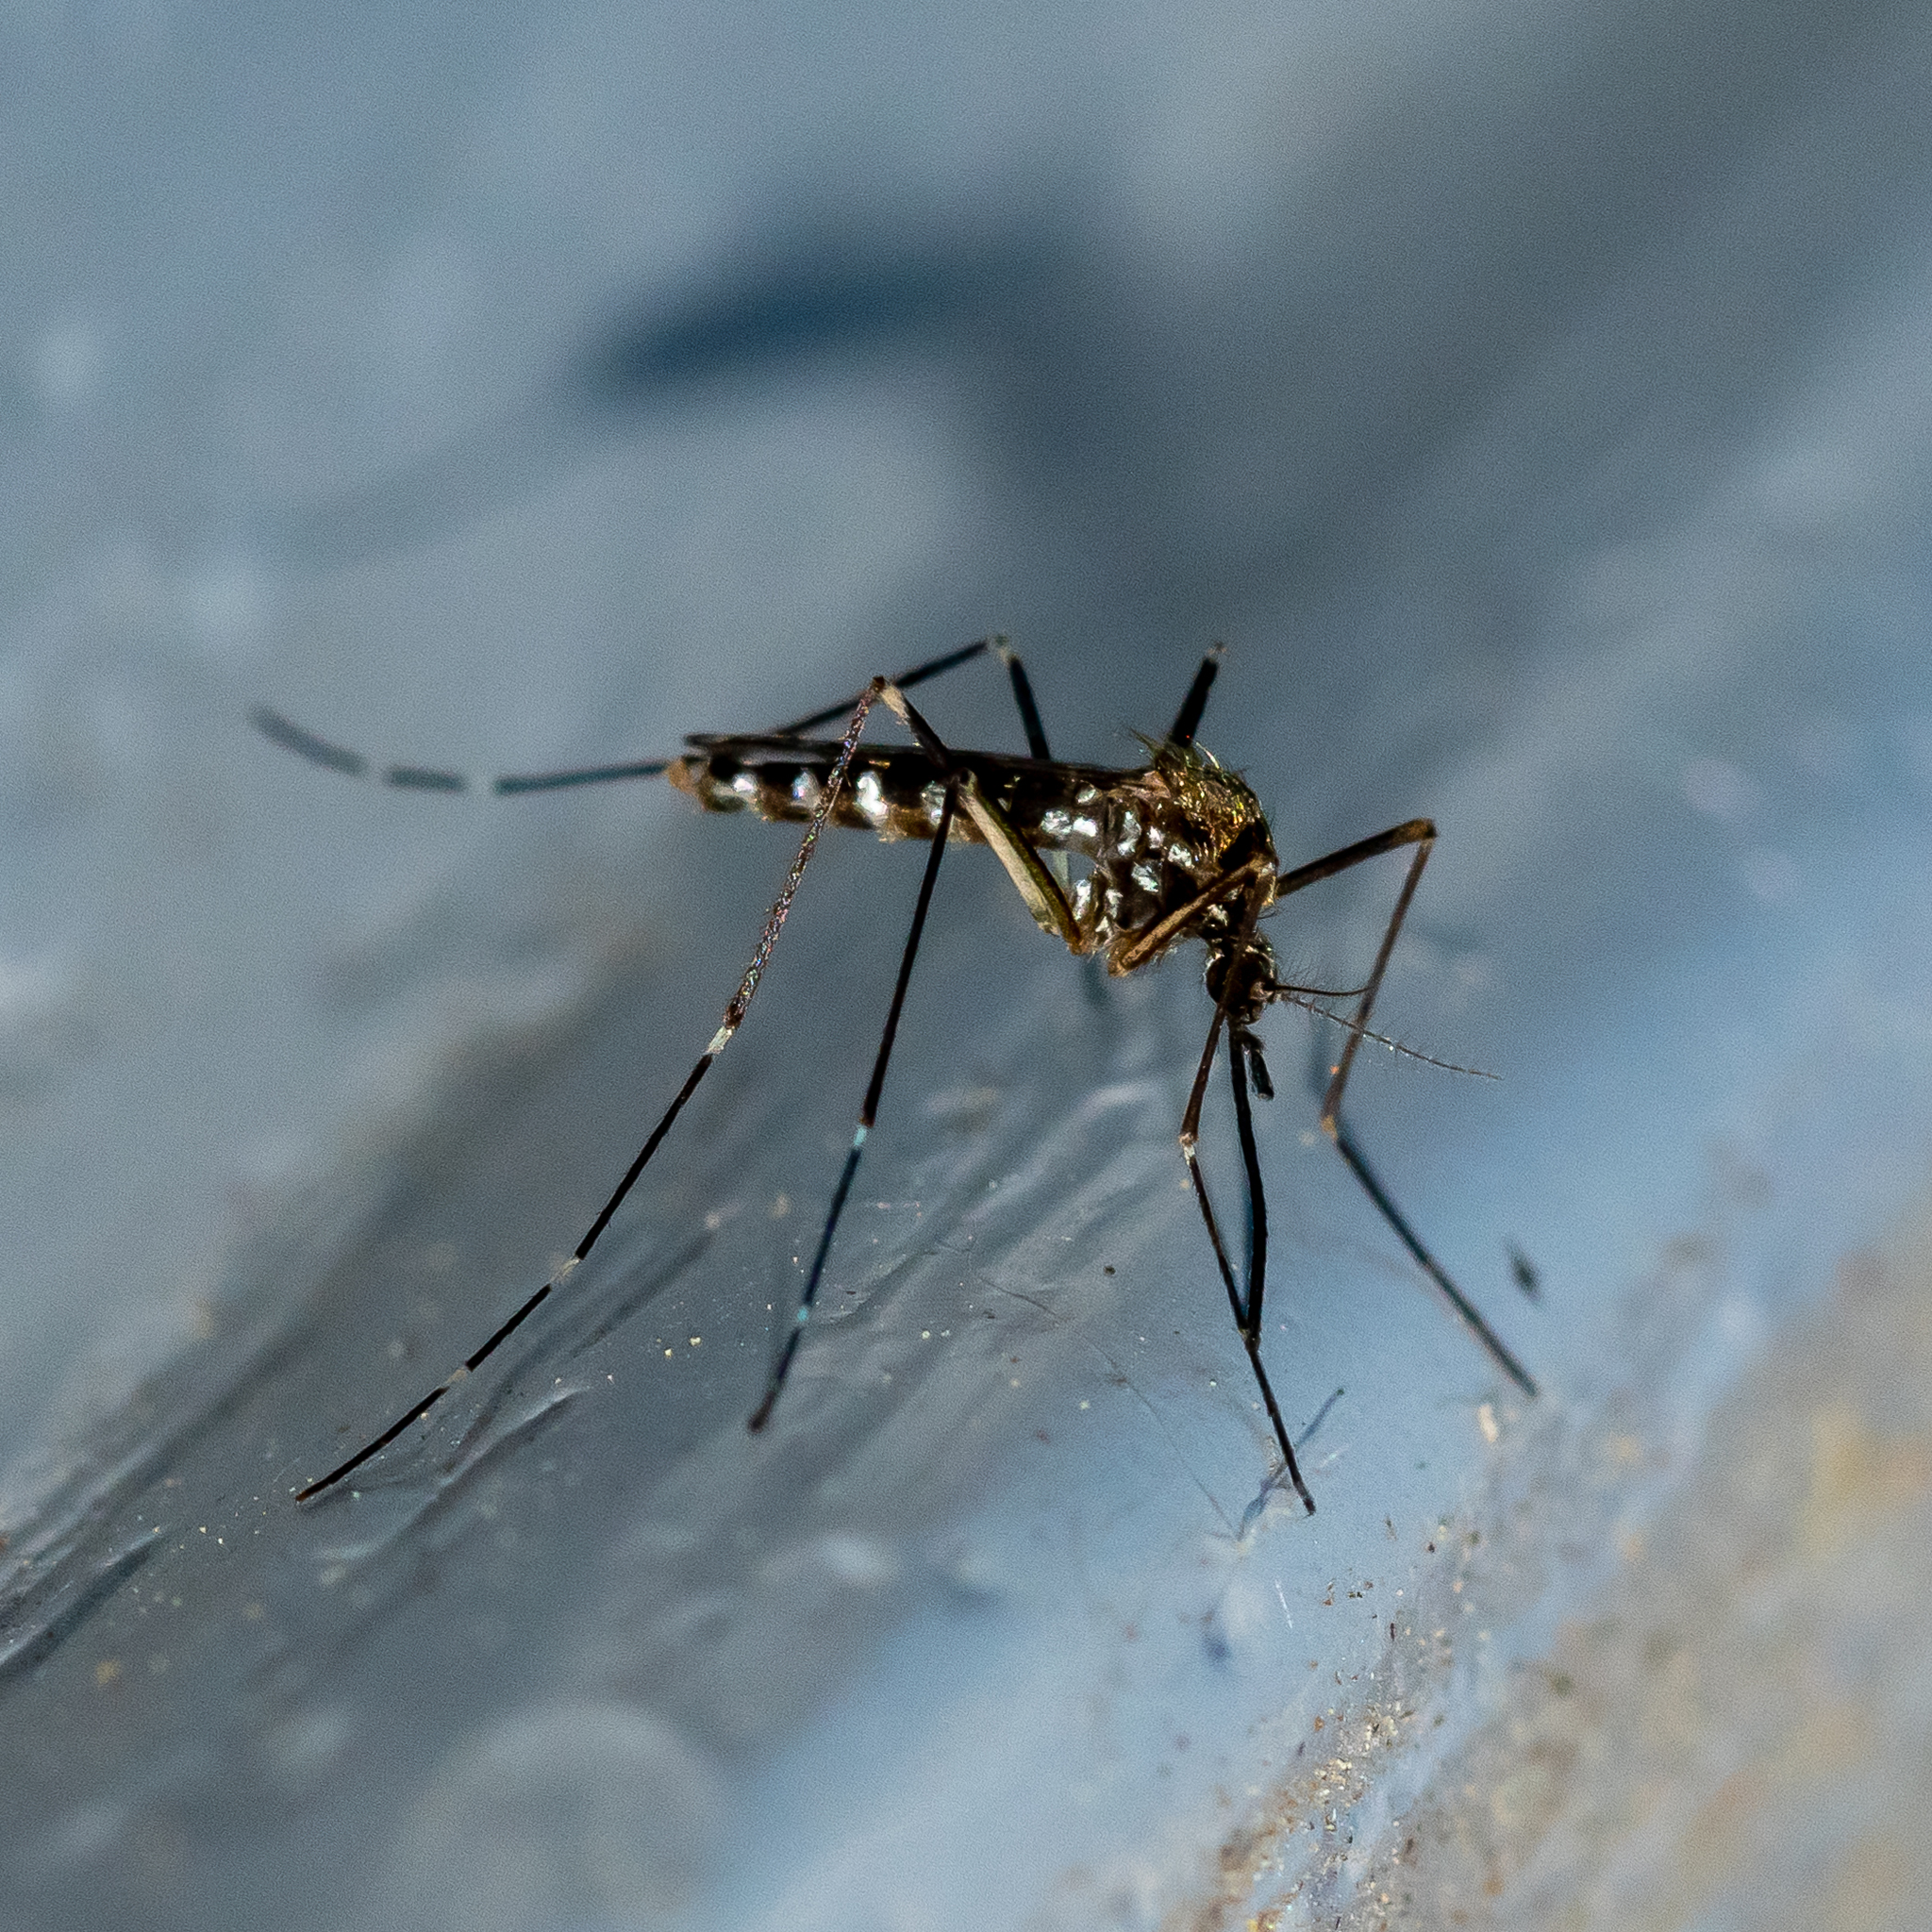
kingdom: Animalia
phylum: Arthropoda
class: Insecta
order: Diptera
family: Culicidae
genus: Aedes
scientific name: Aedes japonicus
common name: Asian bush mosquito
